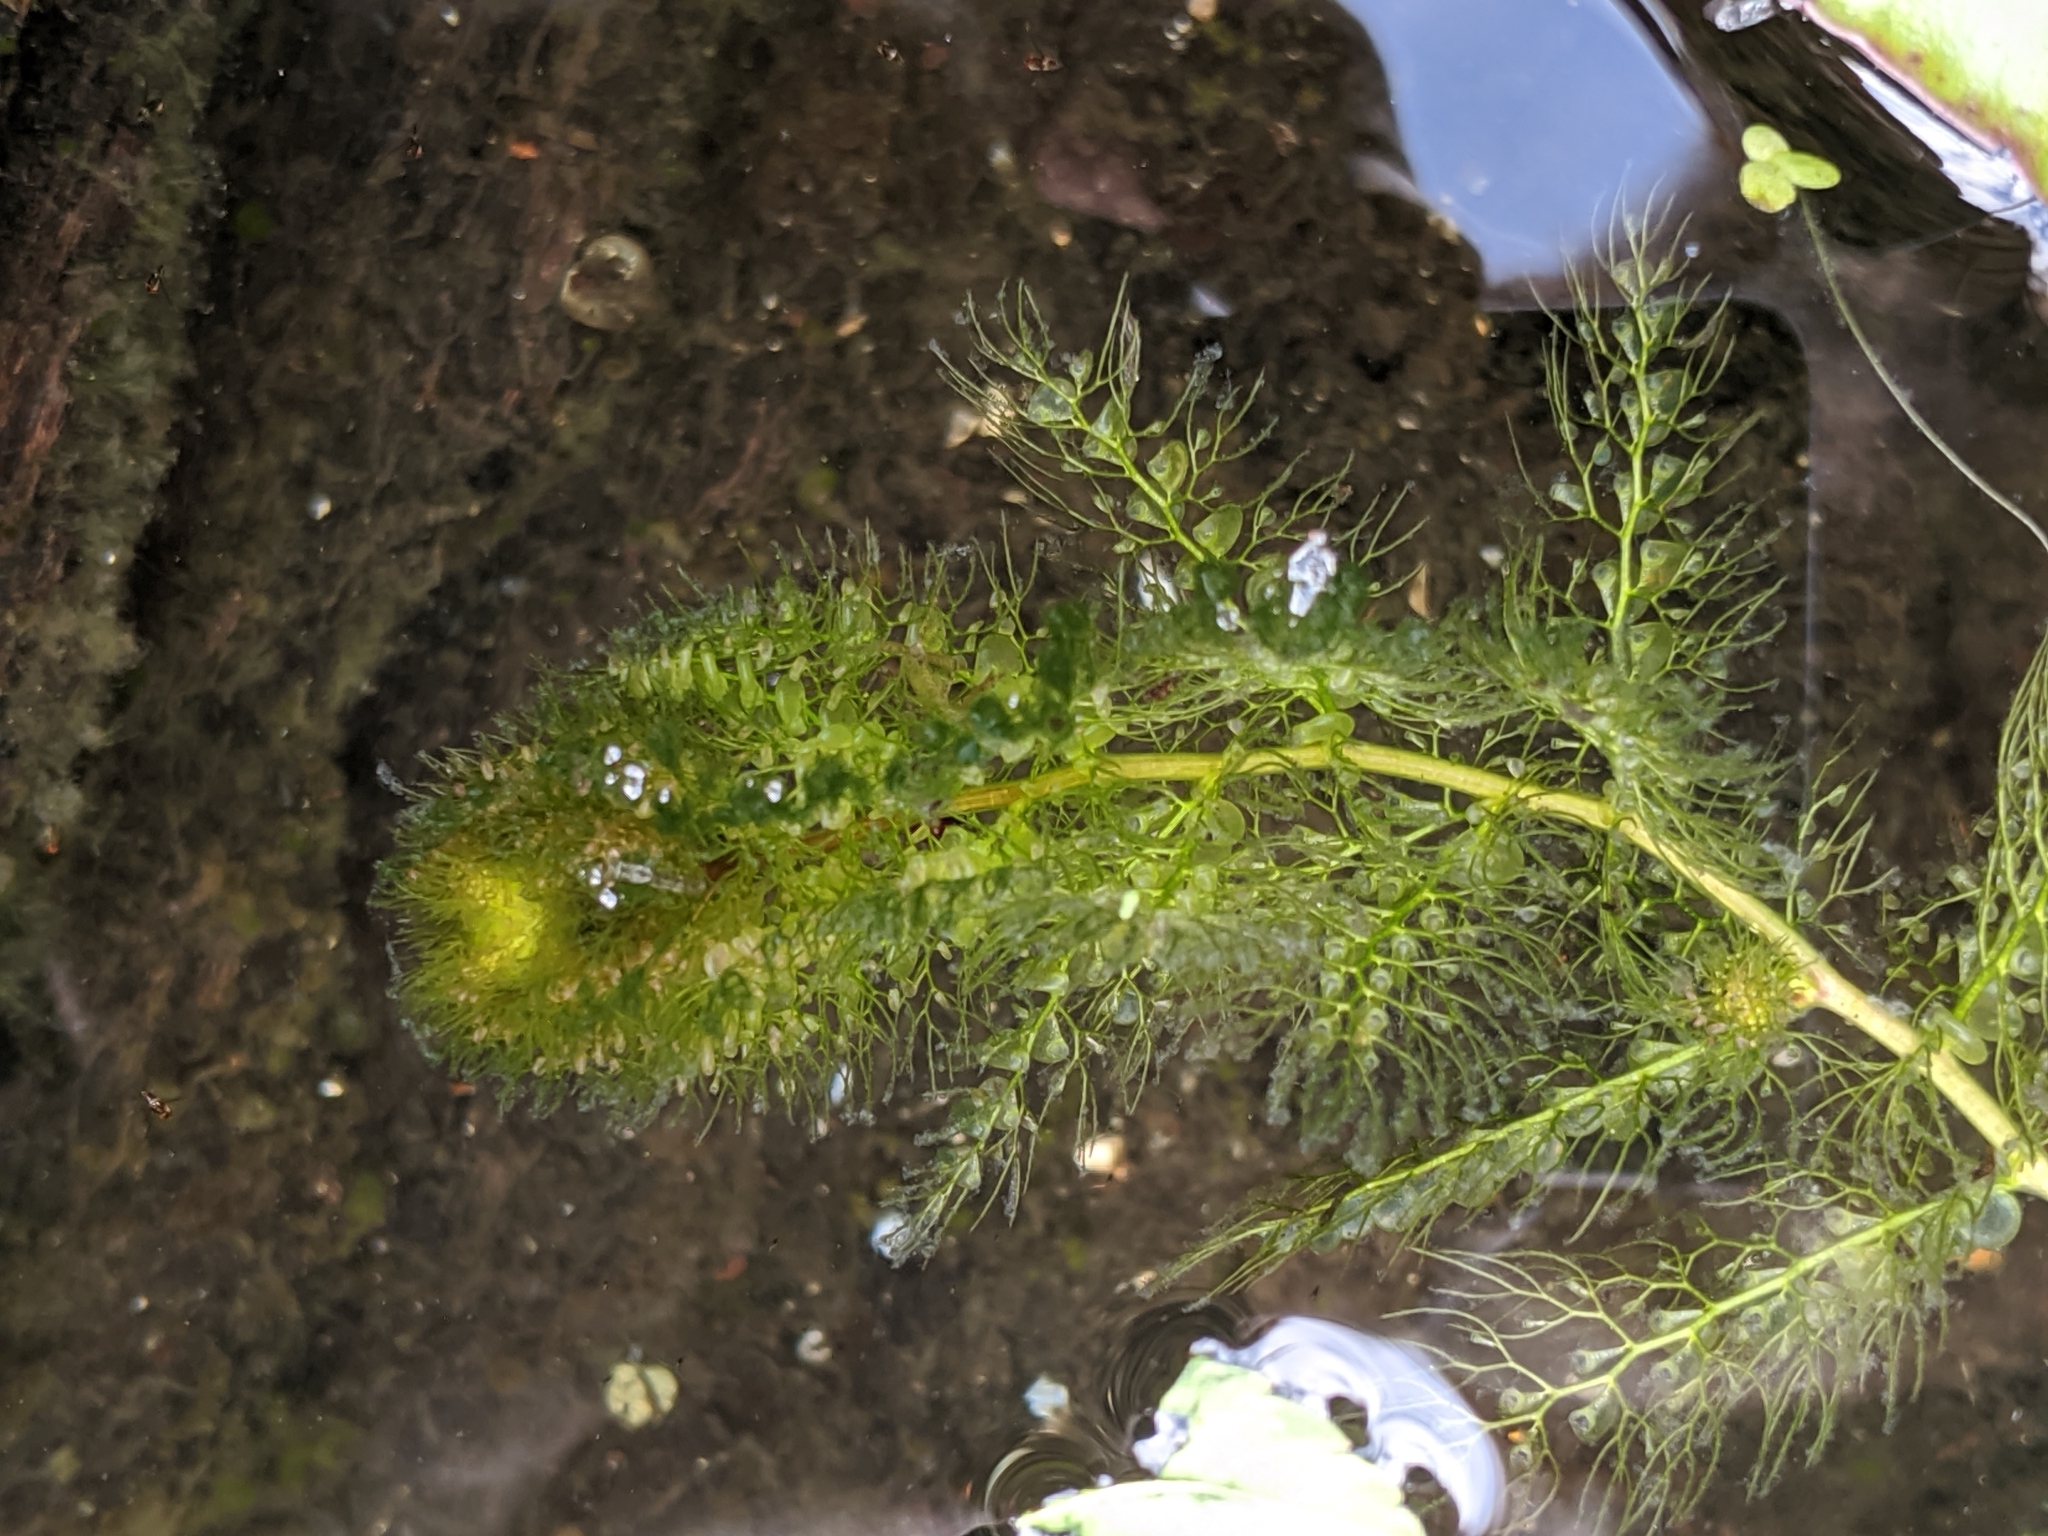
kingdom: Plantae
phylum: Tracheophyta
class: Magnoliopsida
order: Lamiales
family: Lentibulariaceae
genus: Utricularia
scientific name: Utricularia macrorhiza
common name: Common bladderwort
